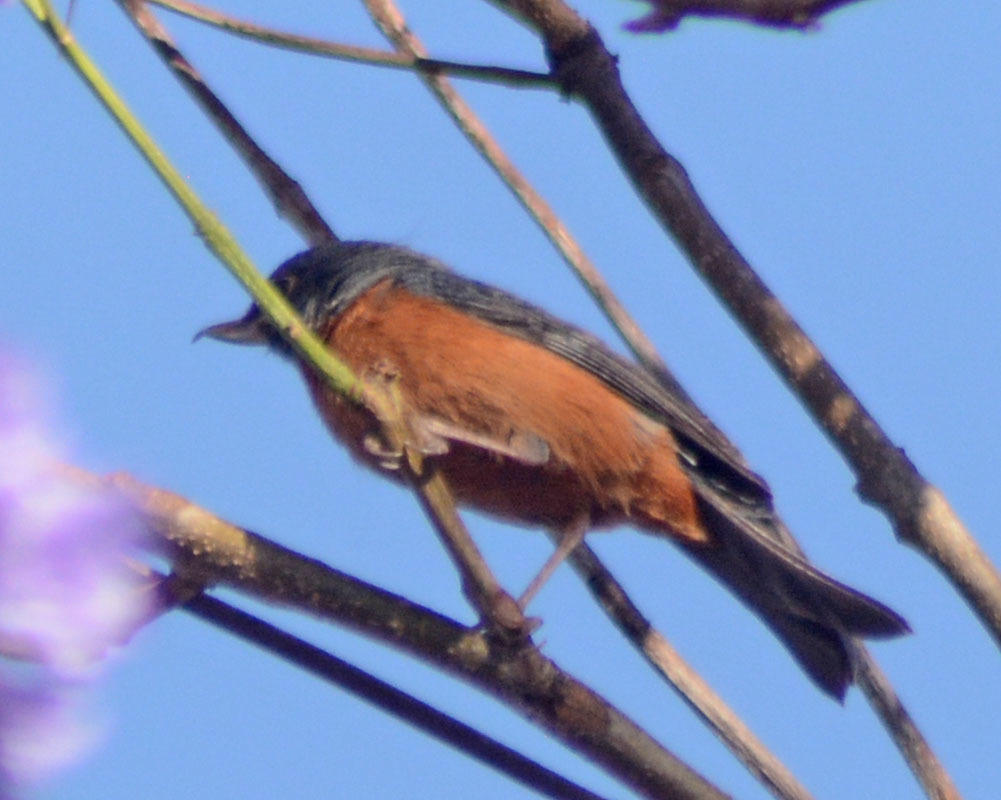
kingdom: Animalia
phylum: Chordata
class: Aves
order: Passeriformes
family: Thraupidae
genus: Diglossa
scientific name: Diglossa baritula
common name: Cinnamon-bellied flowerpiercer
